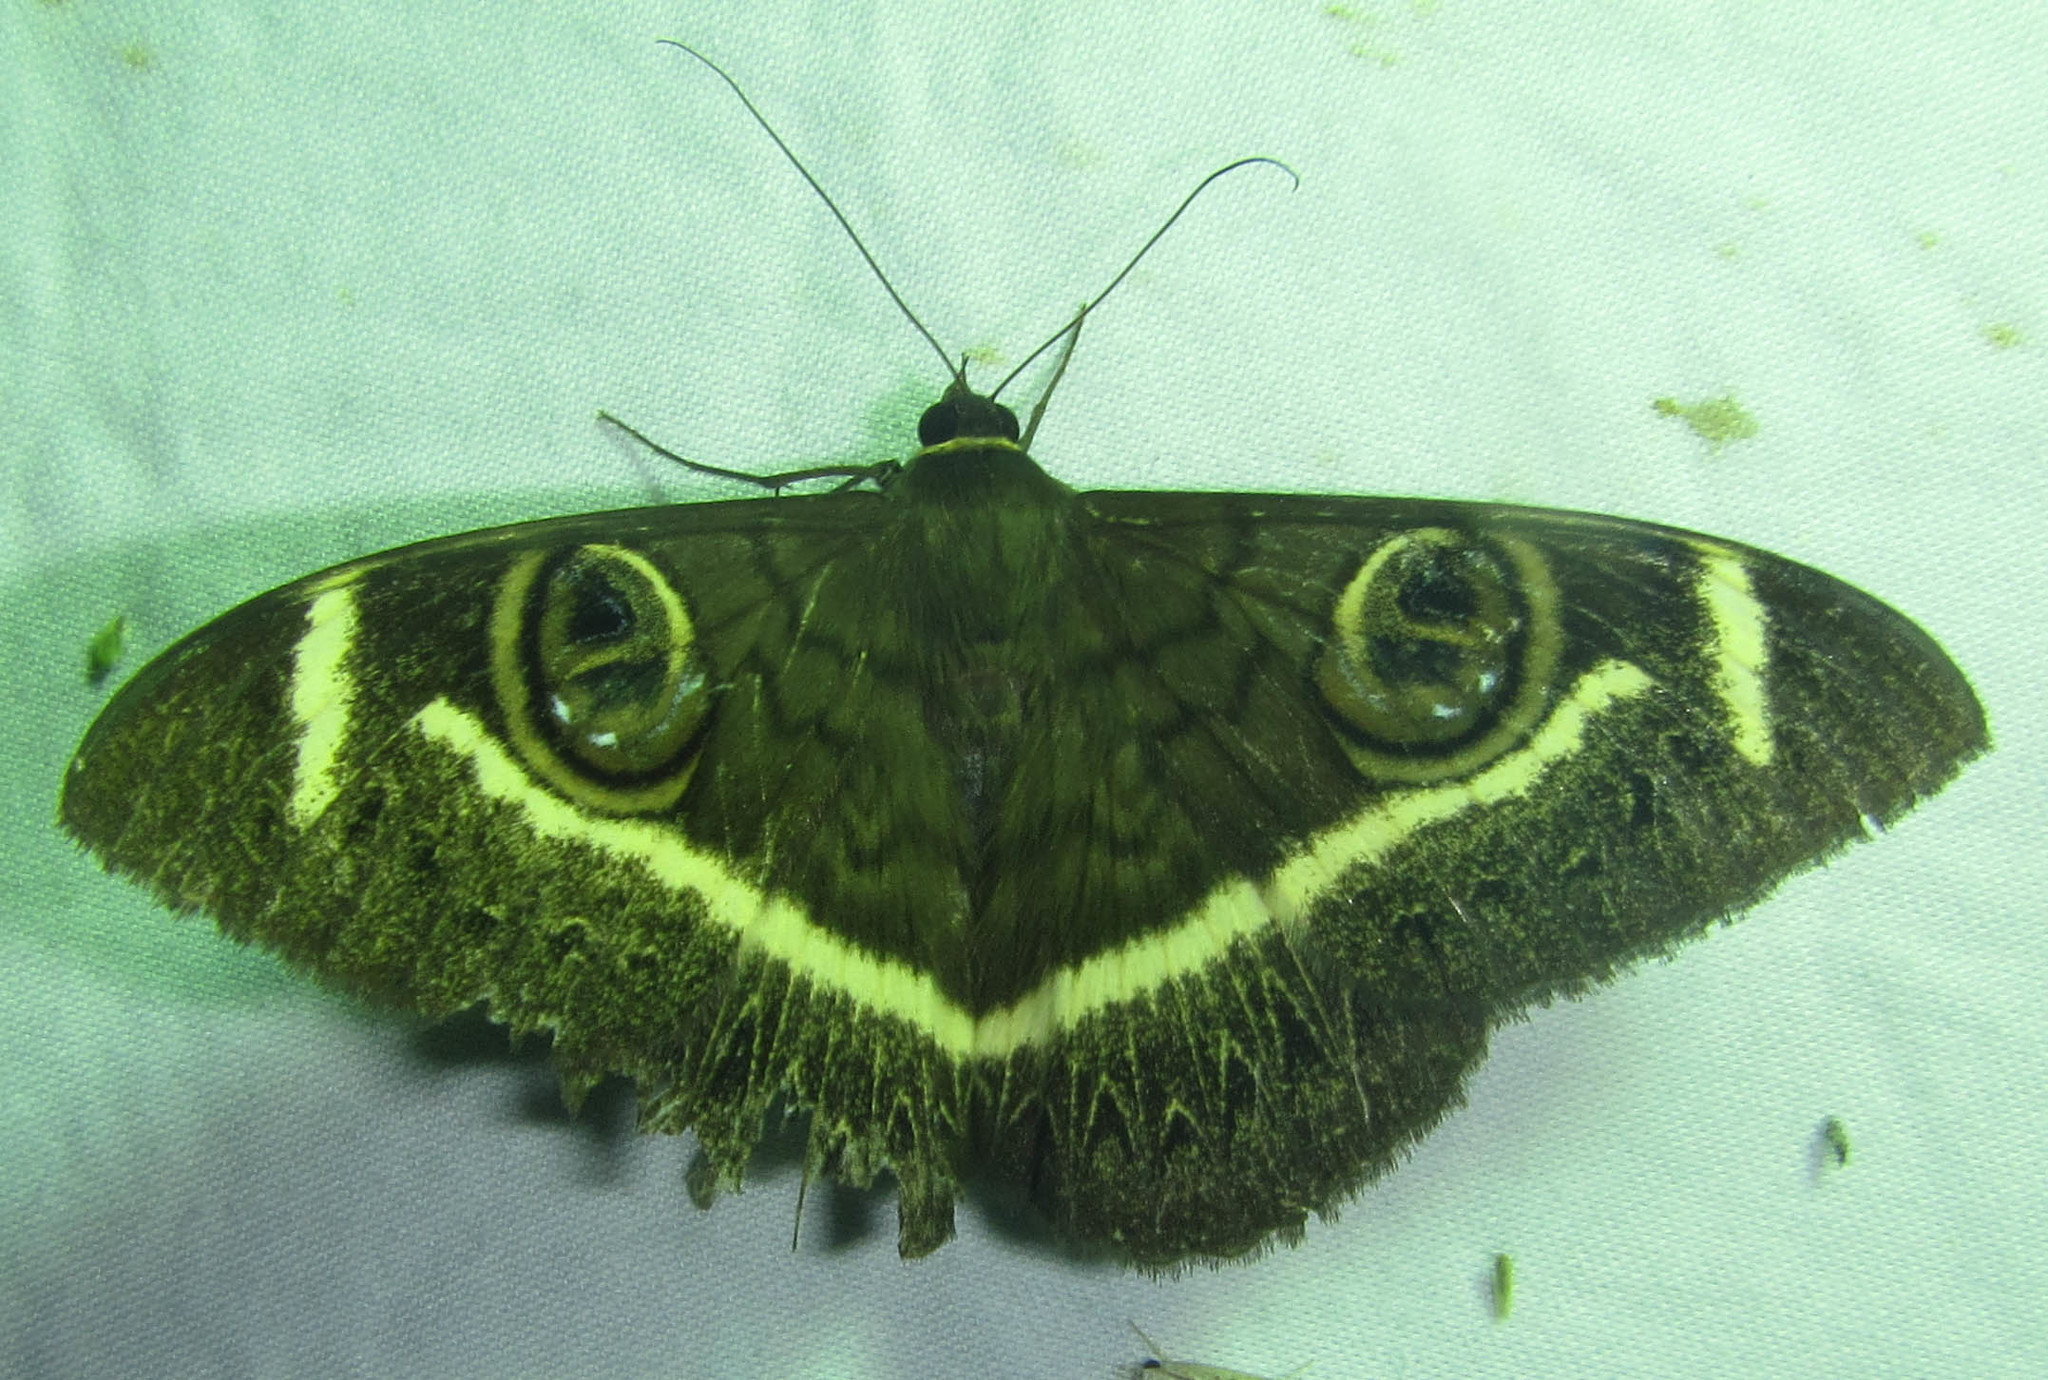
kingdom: Animalia
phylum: Arthropoda
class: Insecta
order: Lepidoptera
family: Erebidae
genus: Cyligramma
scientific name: Cyligramma latona
